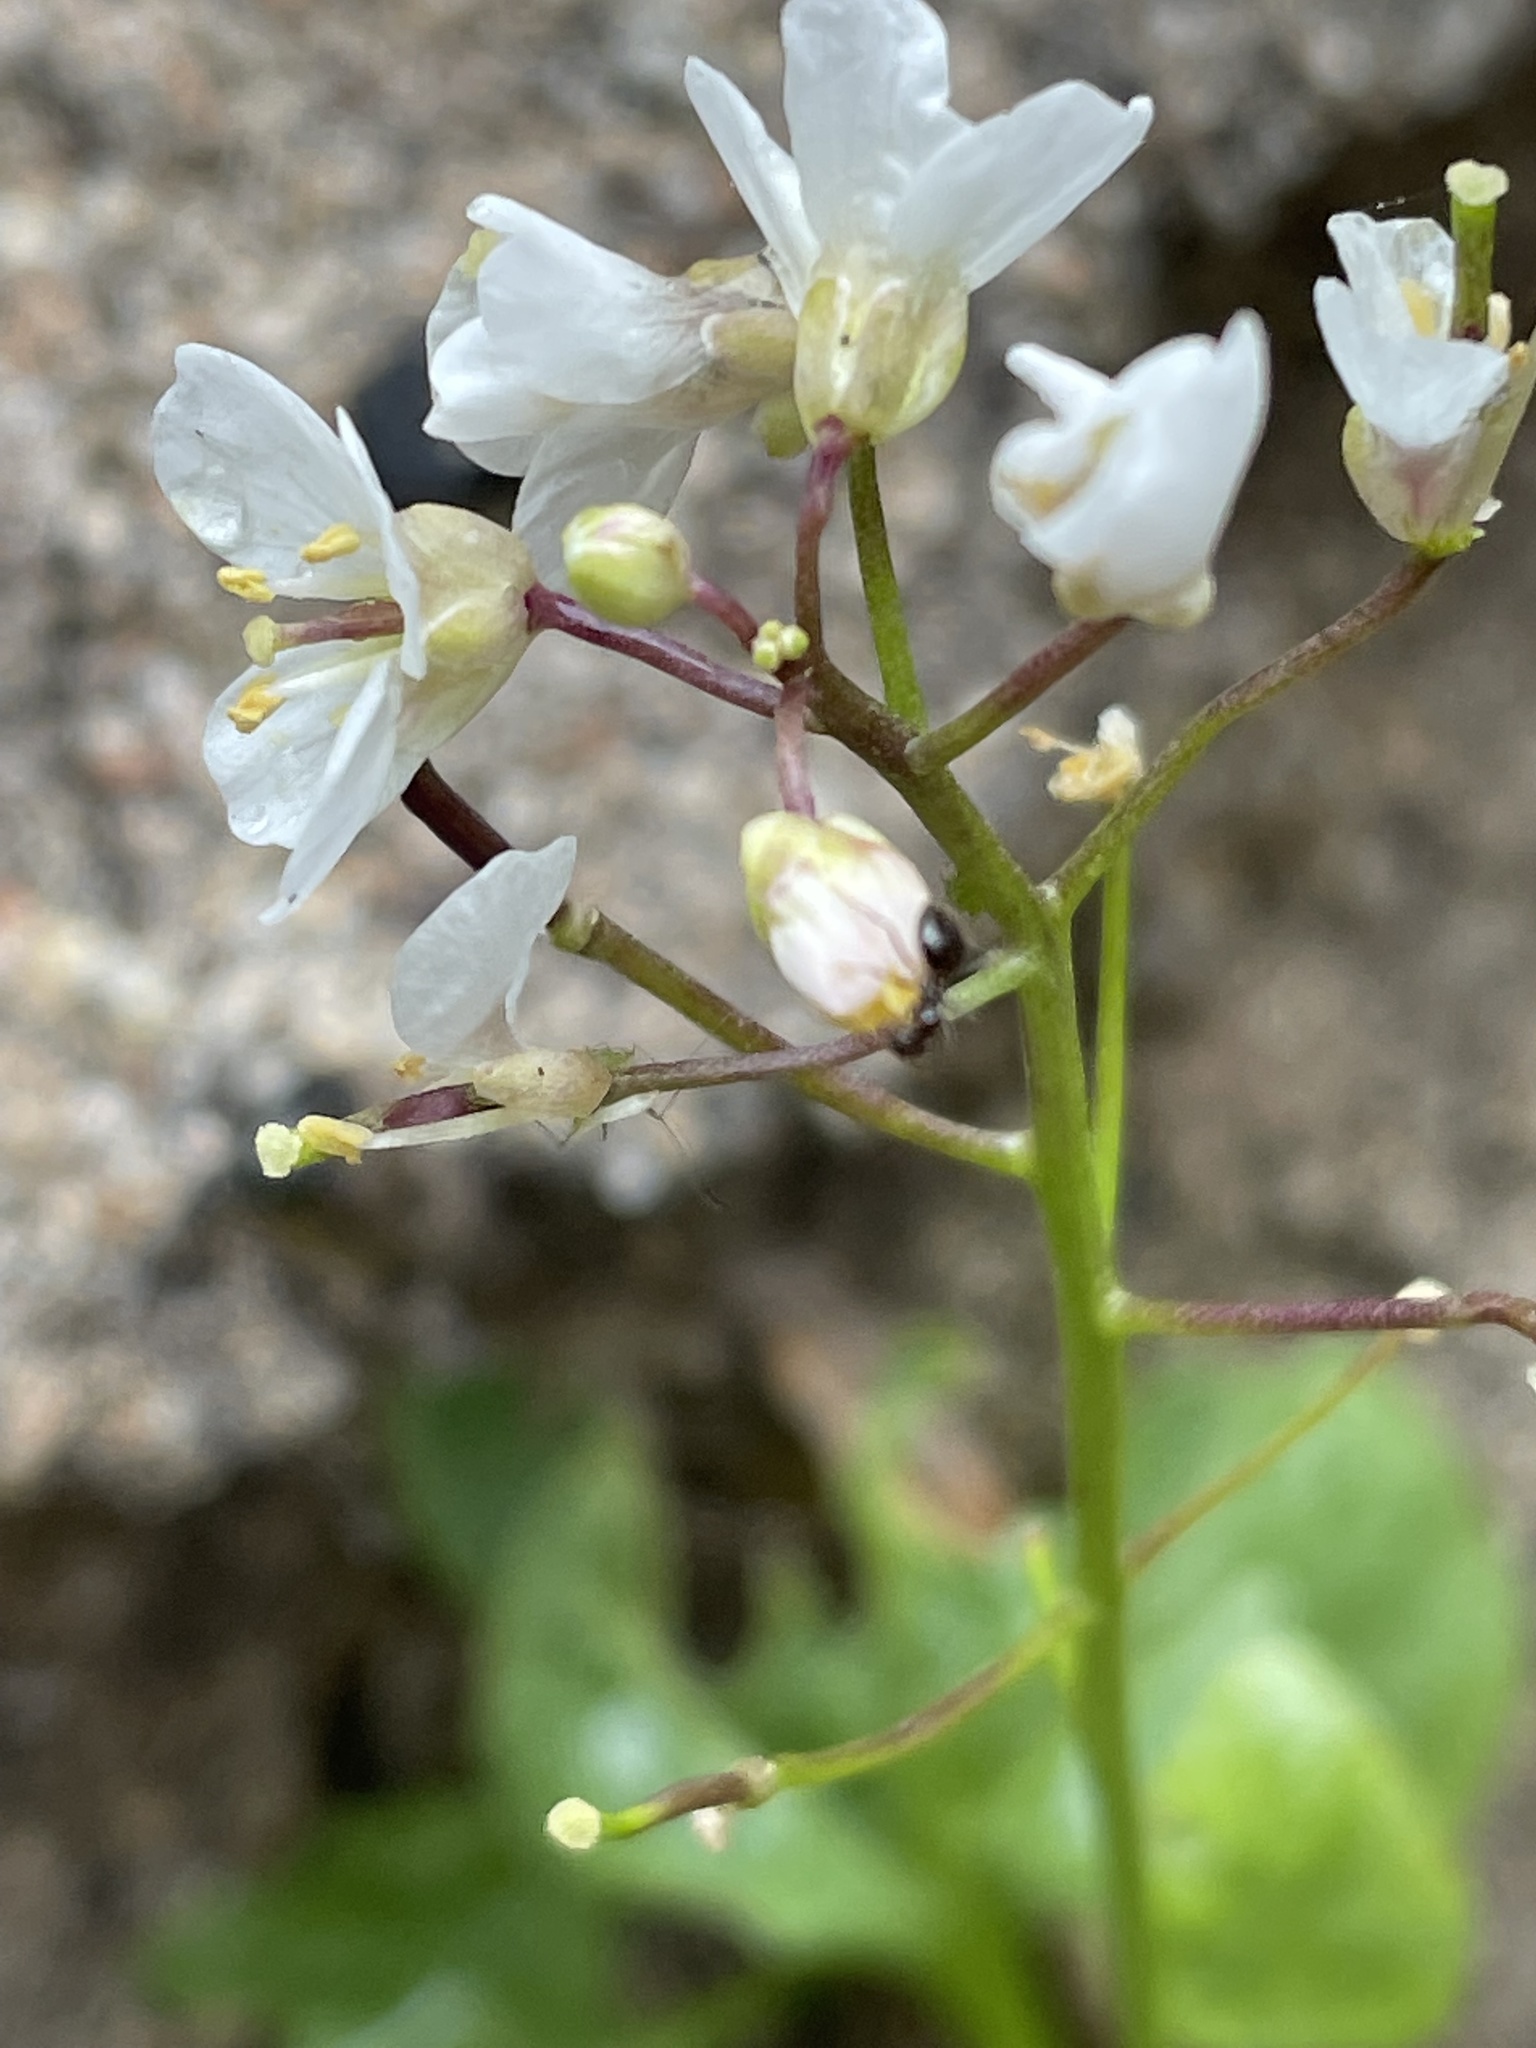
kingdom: Plantae
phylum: Tracheophyta
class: Magnoliopsida
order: Brassicales
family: Brassicaceae
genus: Cardamine
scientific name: Cardamine californica
